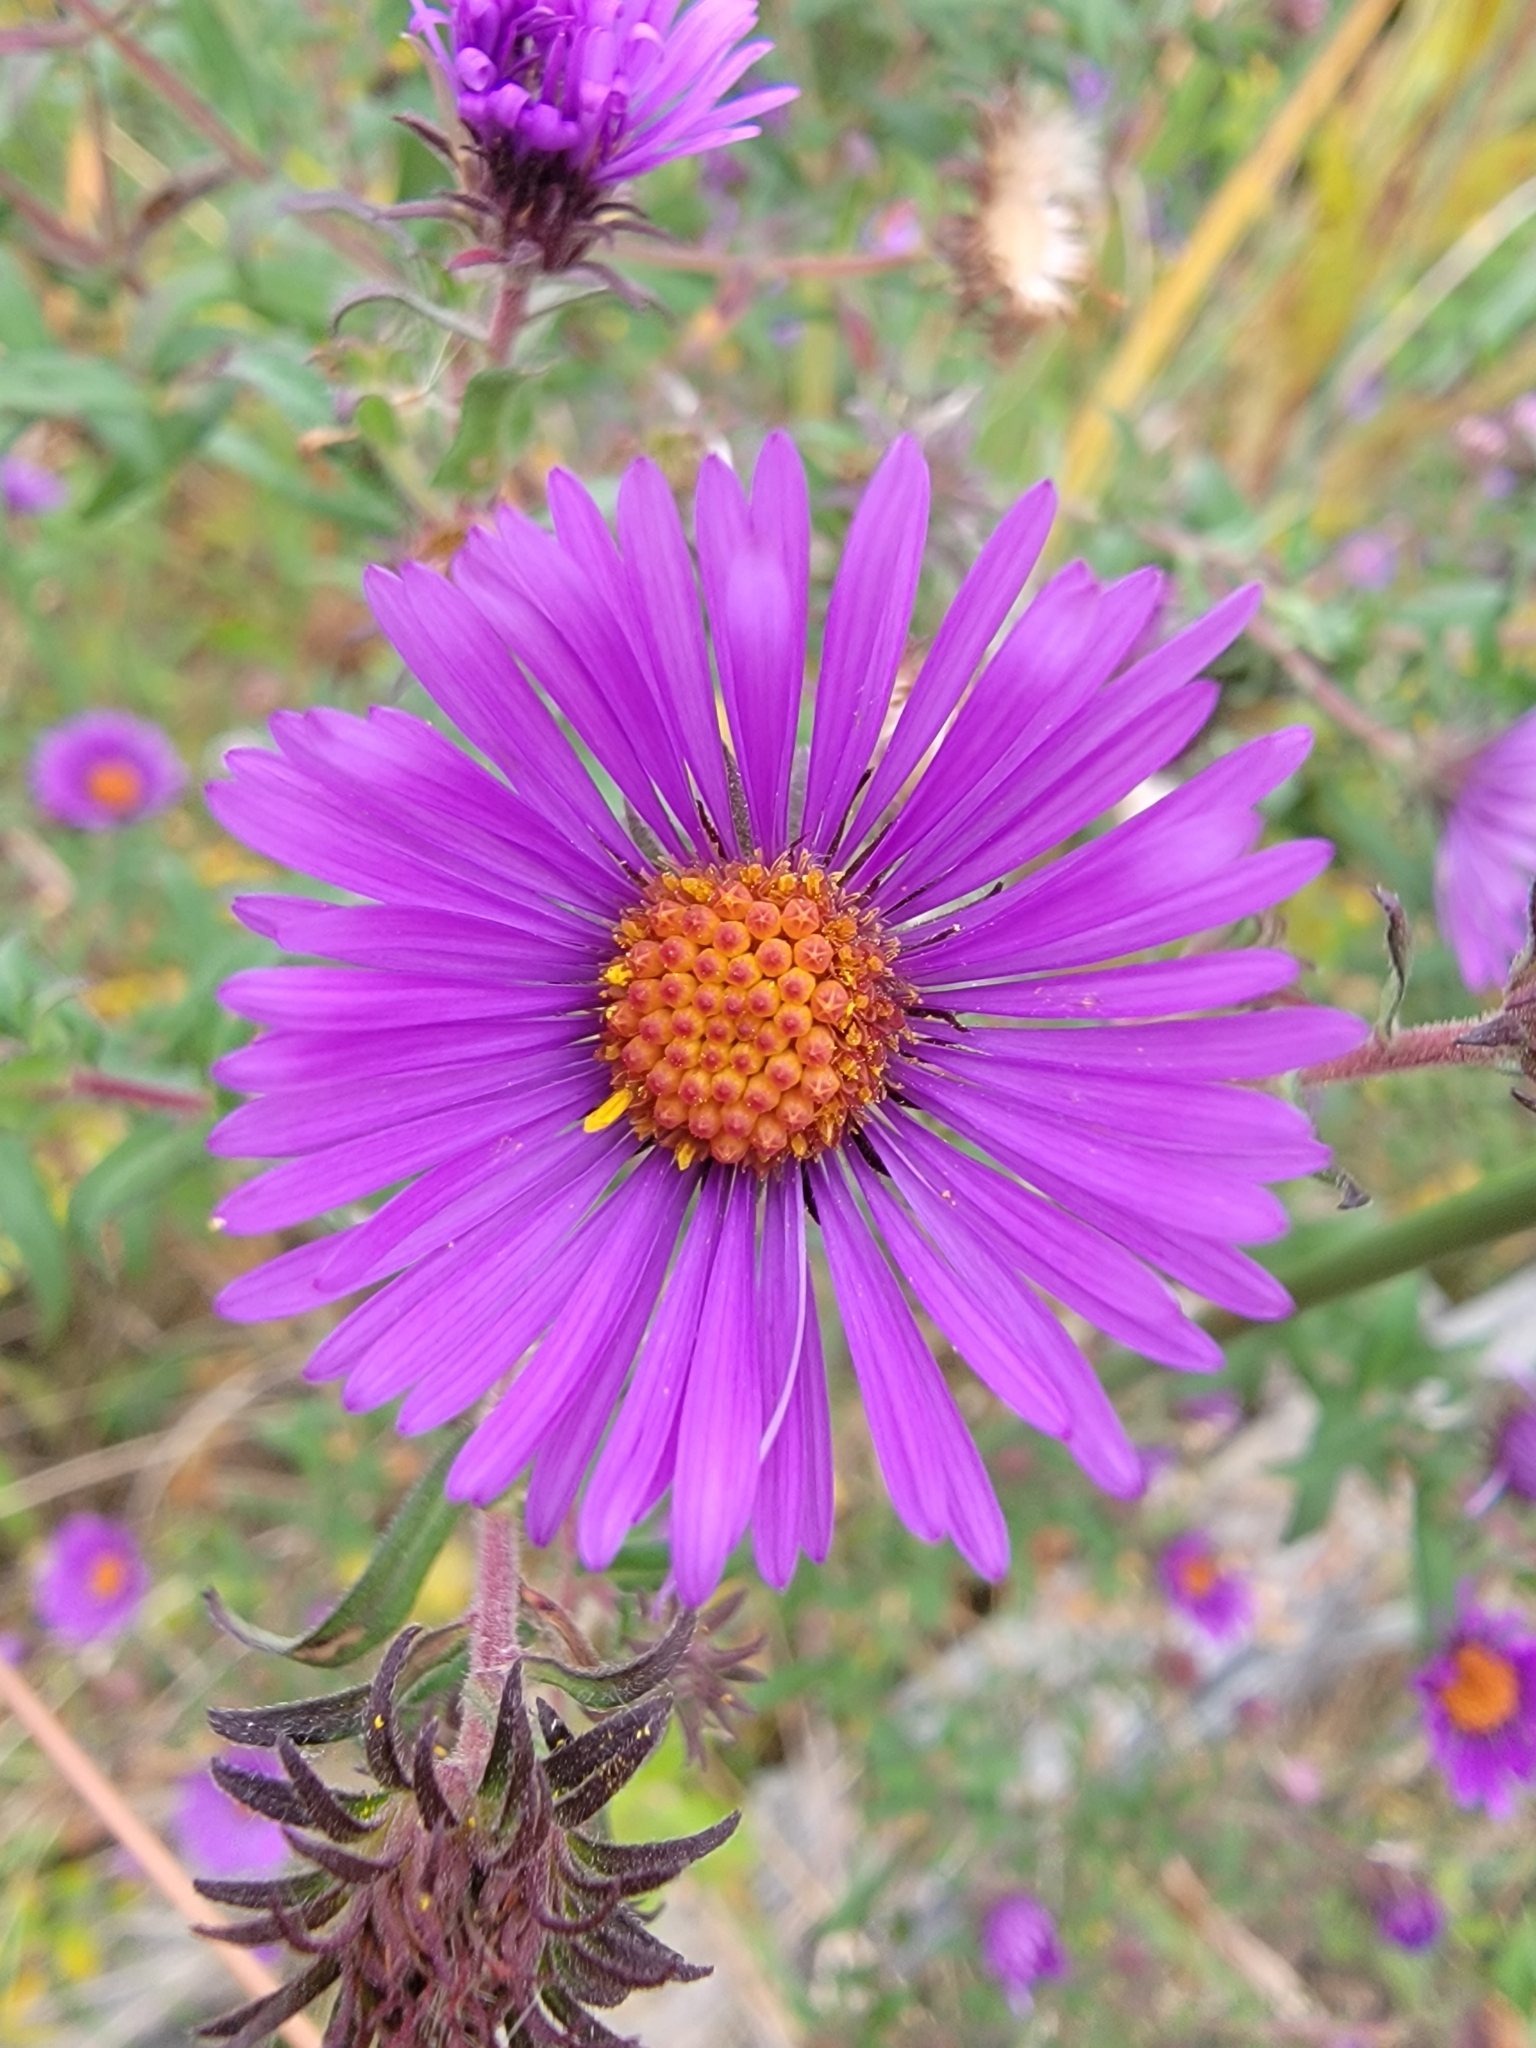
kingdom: Plantae
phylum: Tracheophyta
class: Magnoliopsida
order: Asterales
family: Asteraceae
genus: Symphyotrichum
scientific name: Symphyotrichum novae-angliae
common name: Michaelmas daisy
